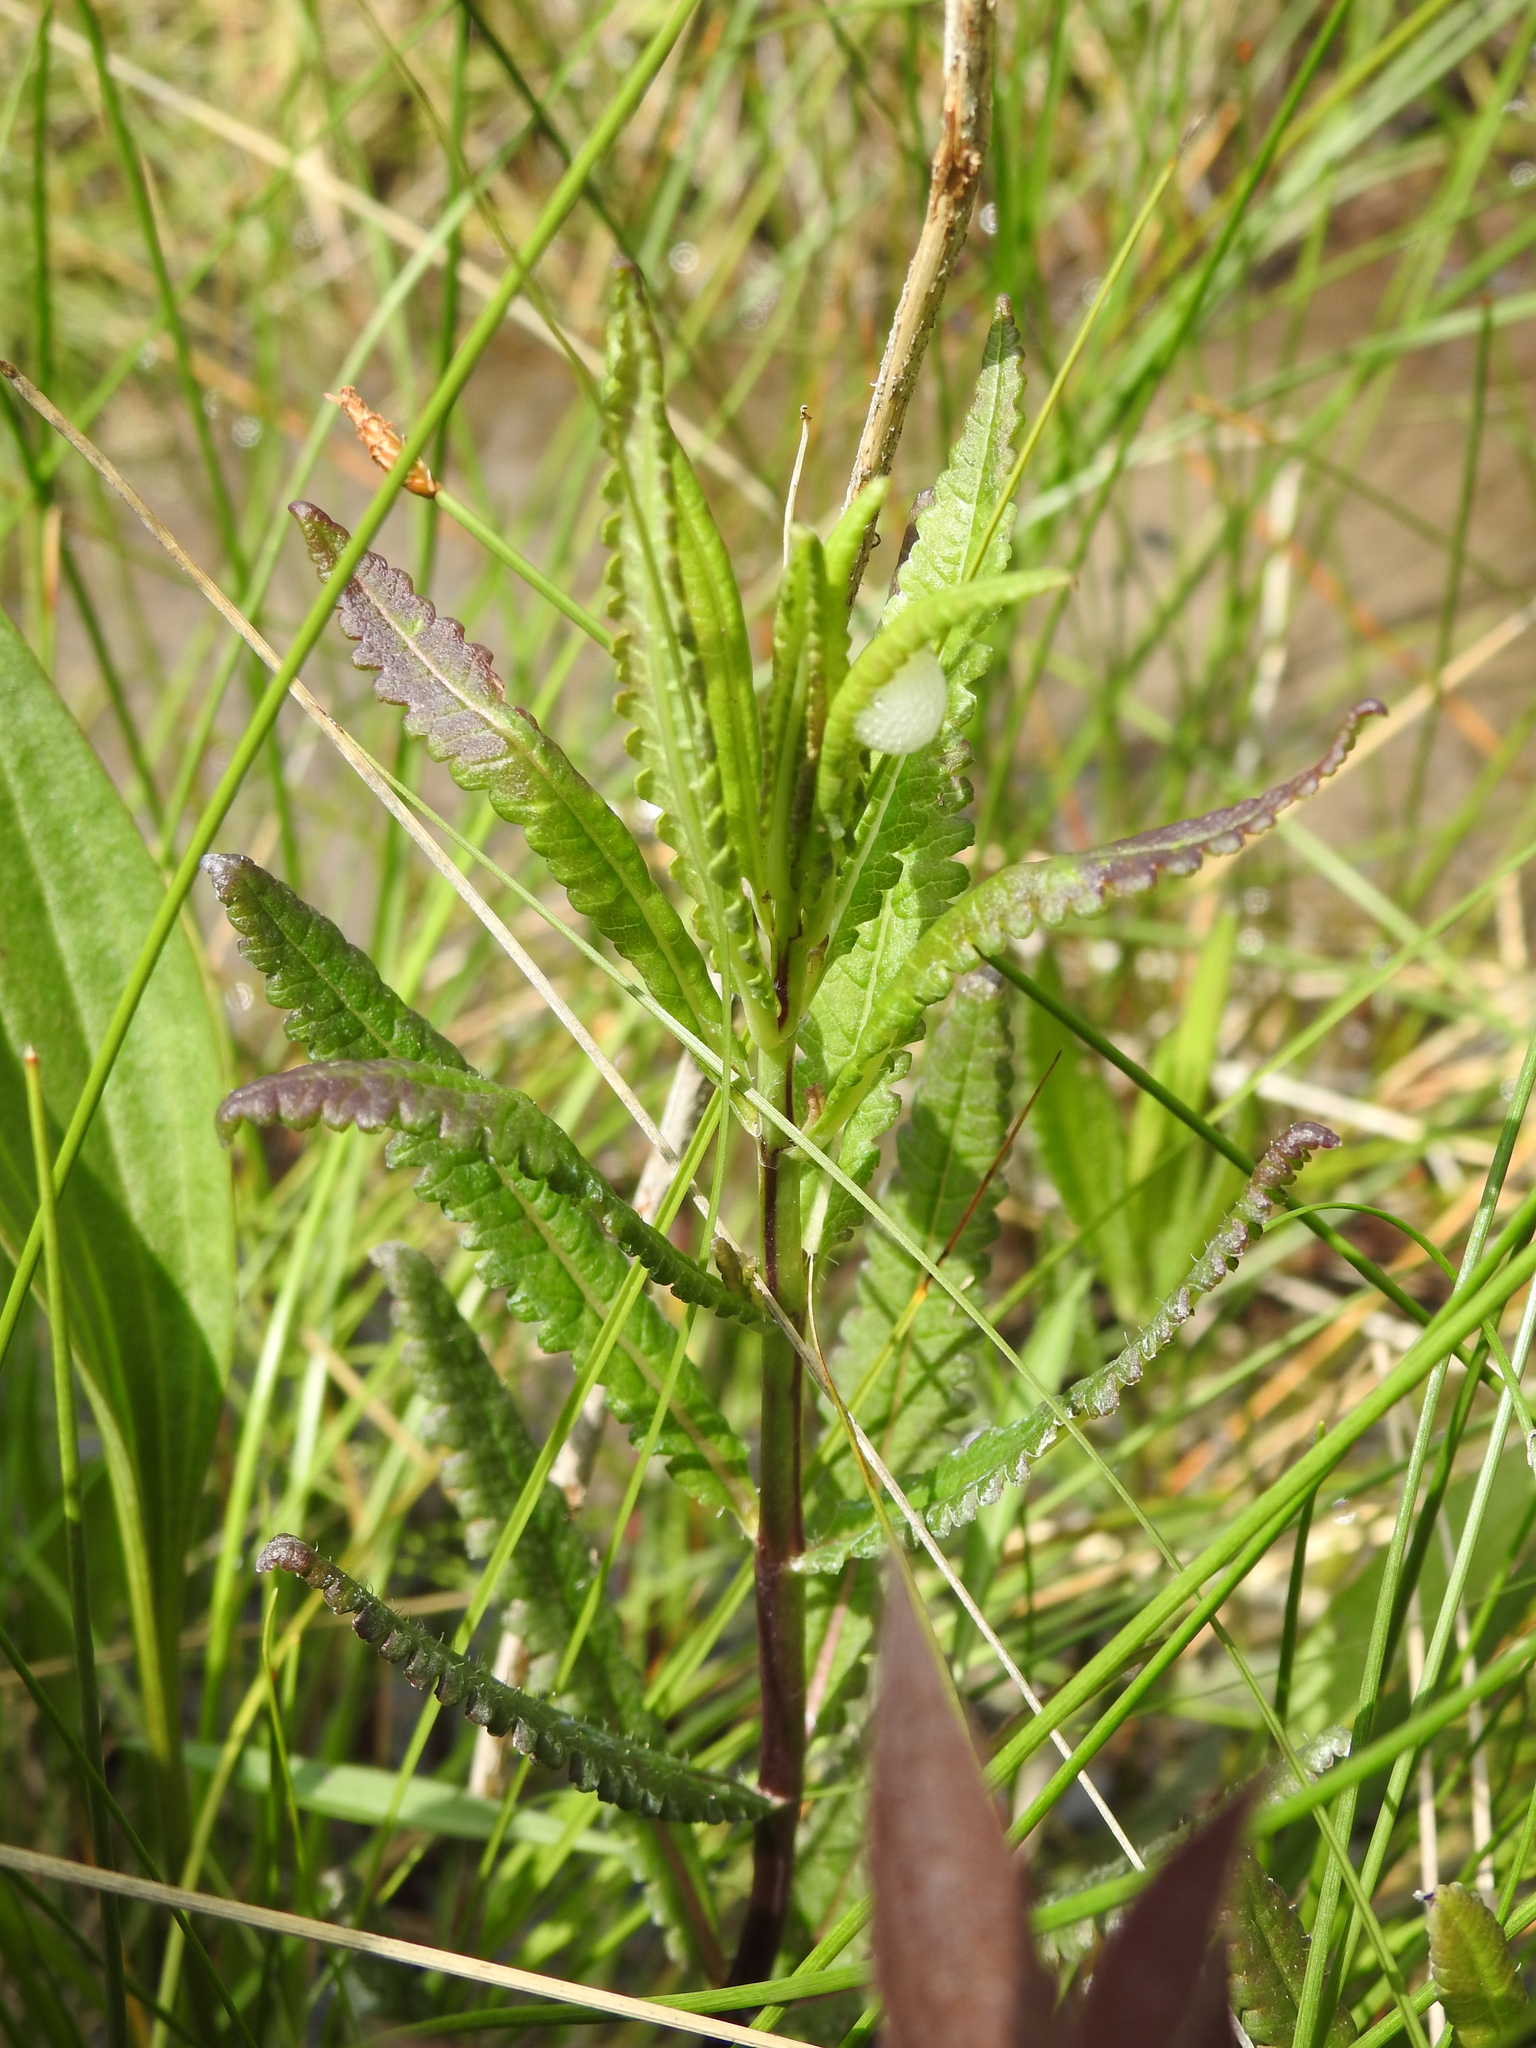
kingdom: Plantae
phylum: Tracheophyta
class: Magnoliopsida
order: Lamiales
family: Orobanchaceae
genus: Pedicularis
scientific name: Pedicularis lanceolata
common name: Swamp lousewort
